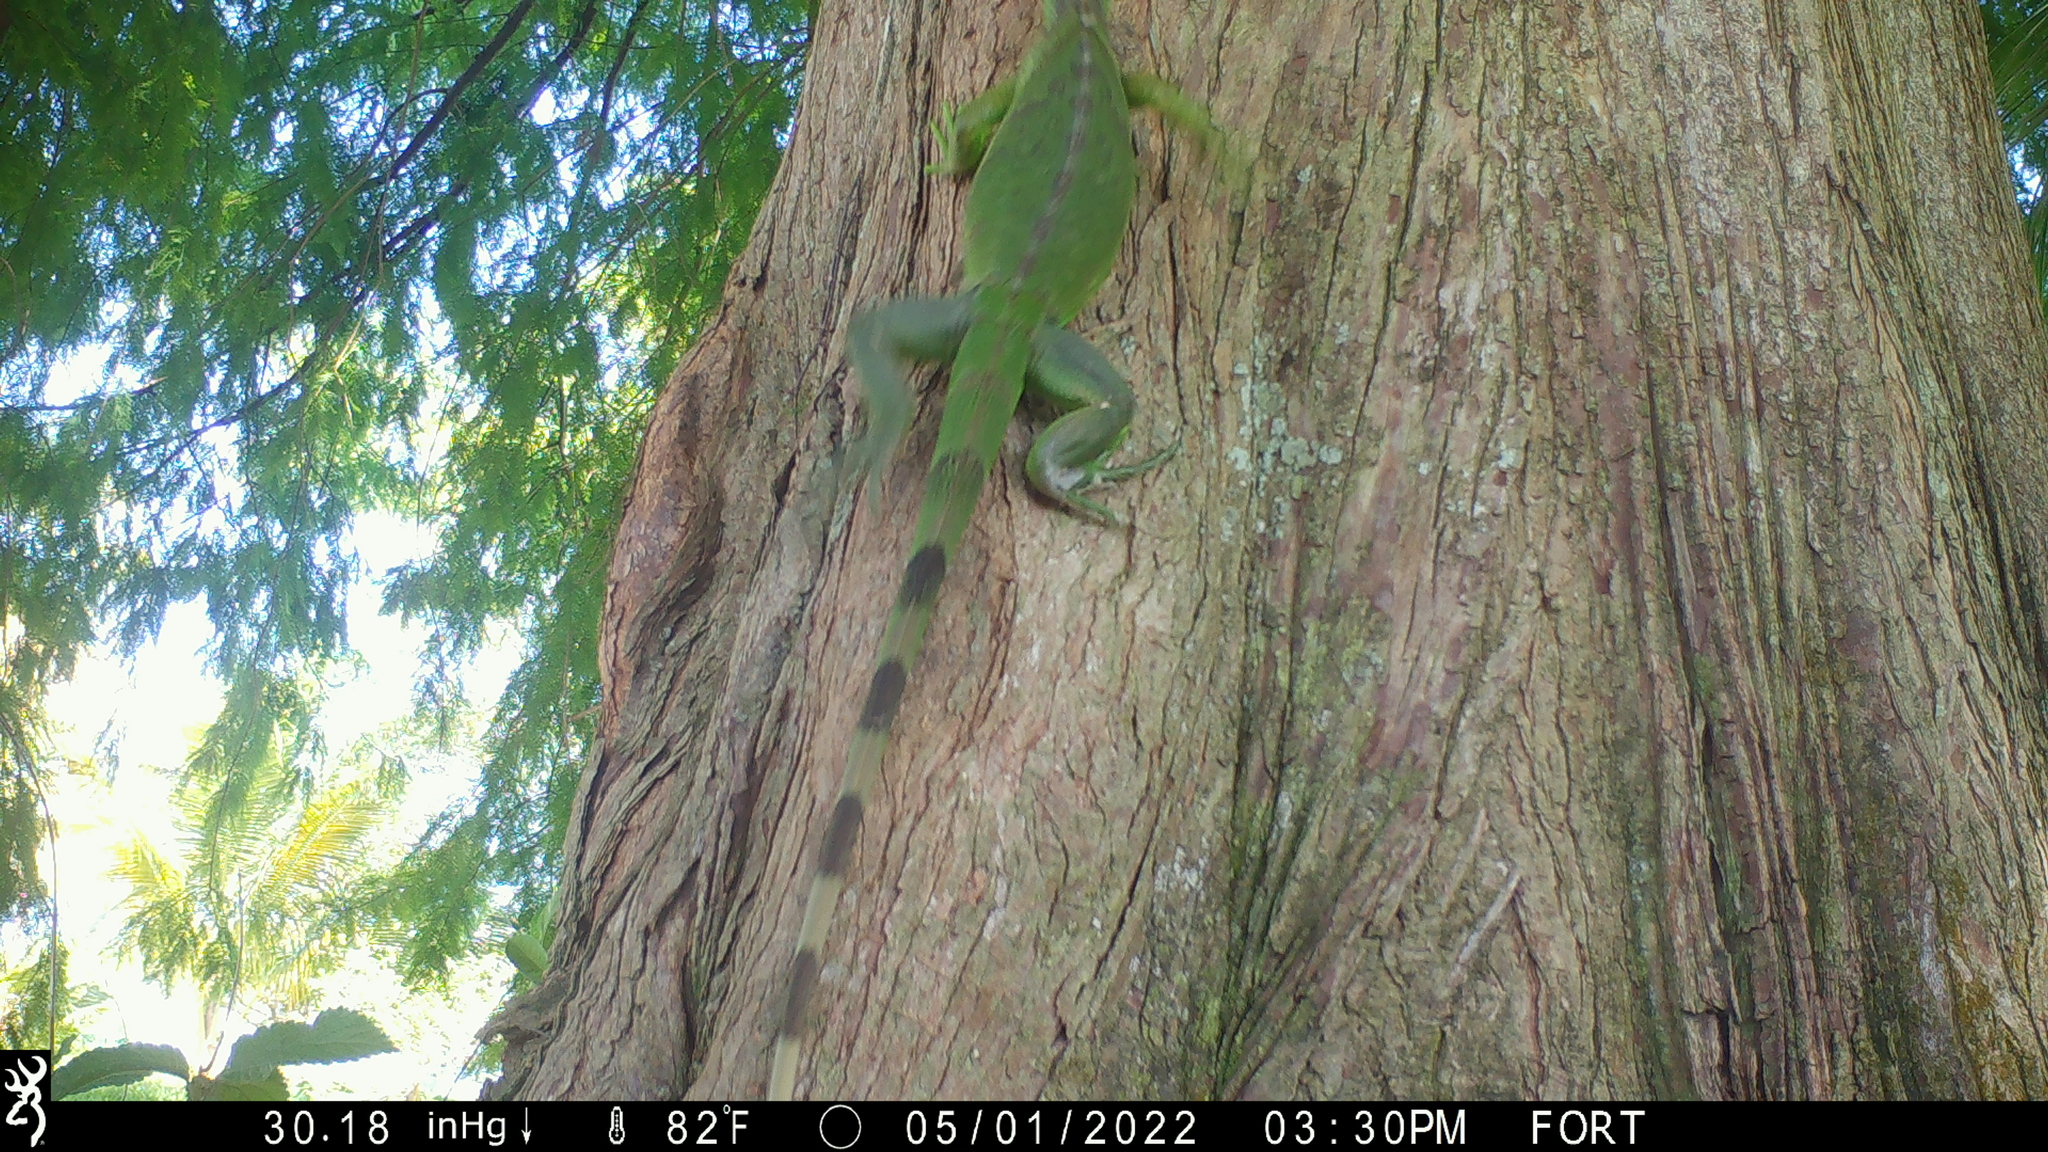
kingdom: Animalia
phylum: Chordata
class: Squamata
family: Iguanidae
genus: Iguana
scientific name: Iguana iguana
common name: Green iguana
